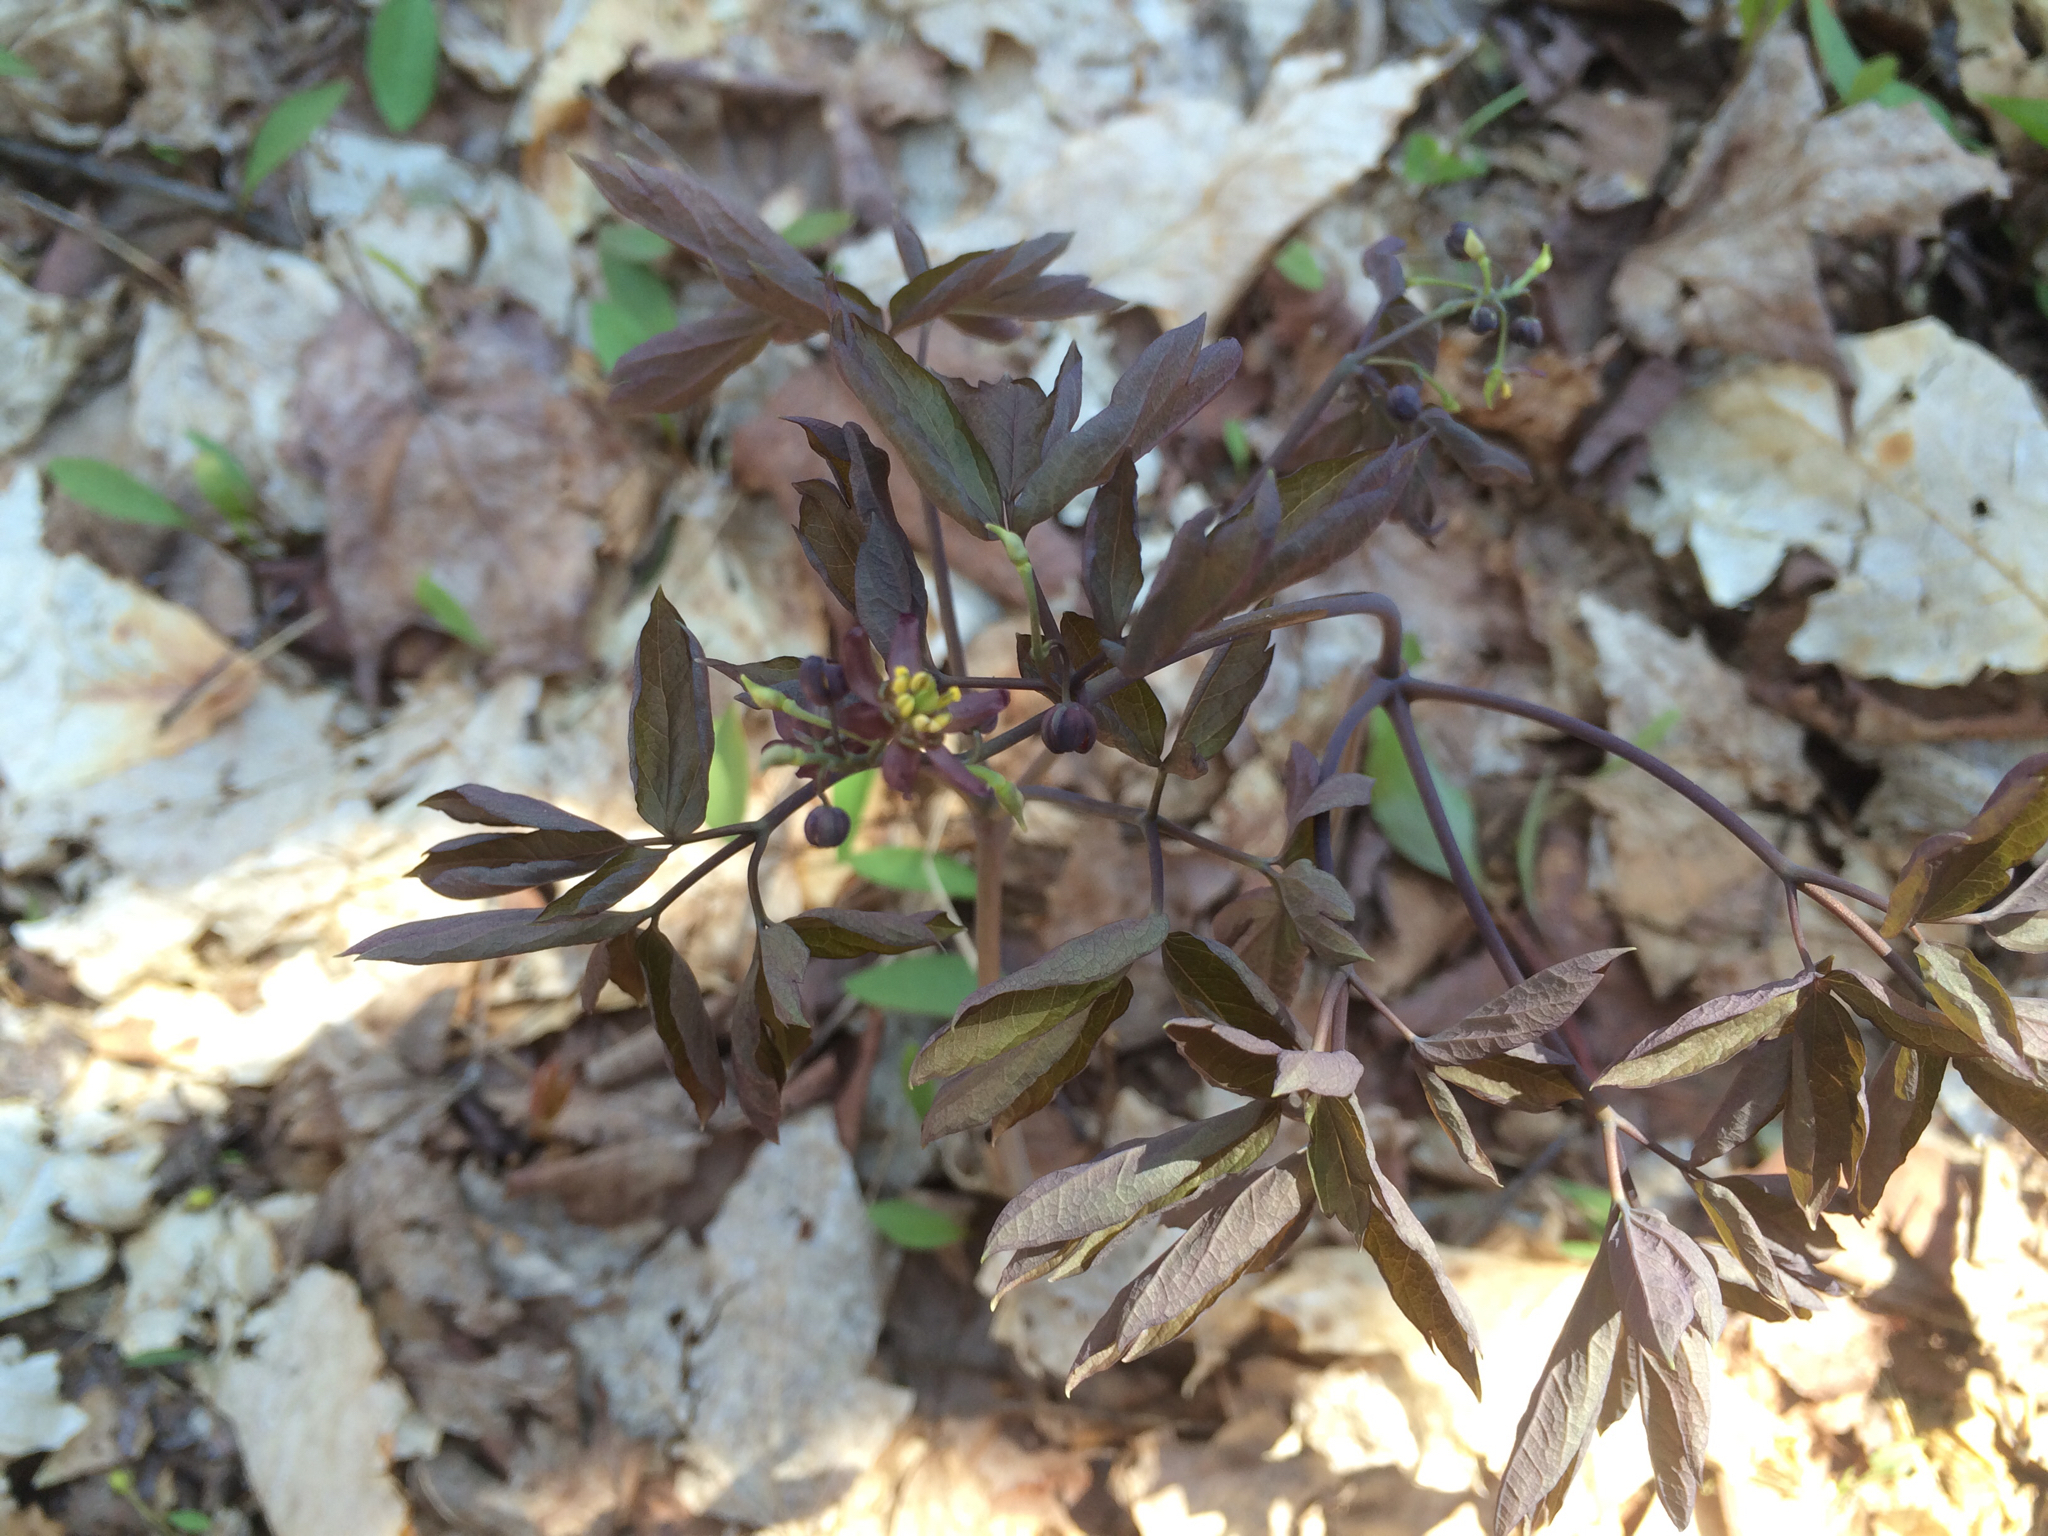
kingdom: Plantae
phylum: Tracheophyta
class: Magnoliopsida
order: Ranunculales
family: Berberidaceae
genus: Caulophyllum
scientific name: Caulophyllum giganteum
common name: Blue cohosh
